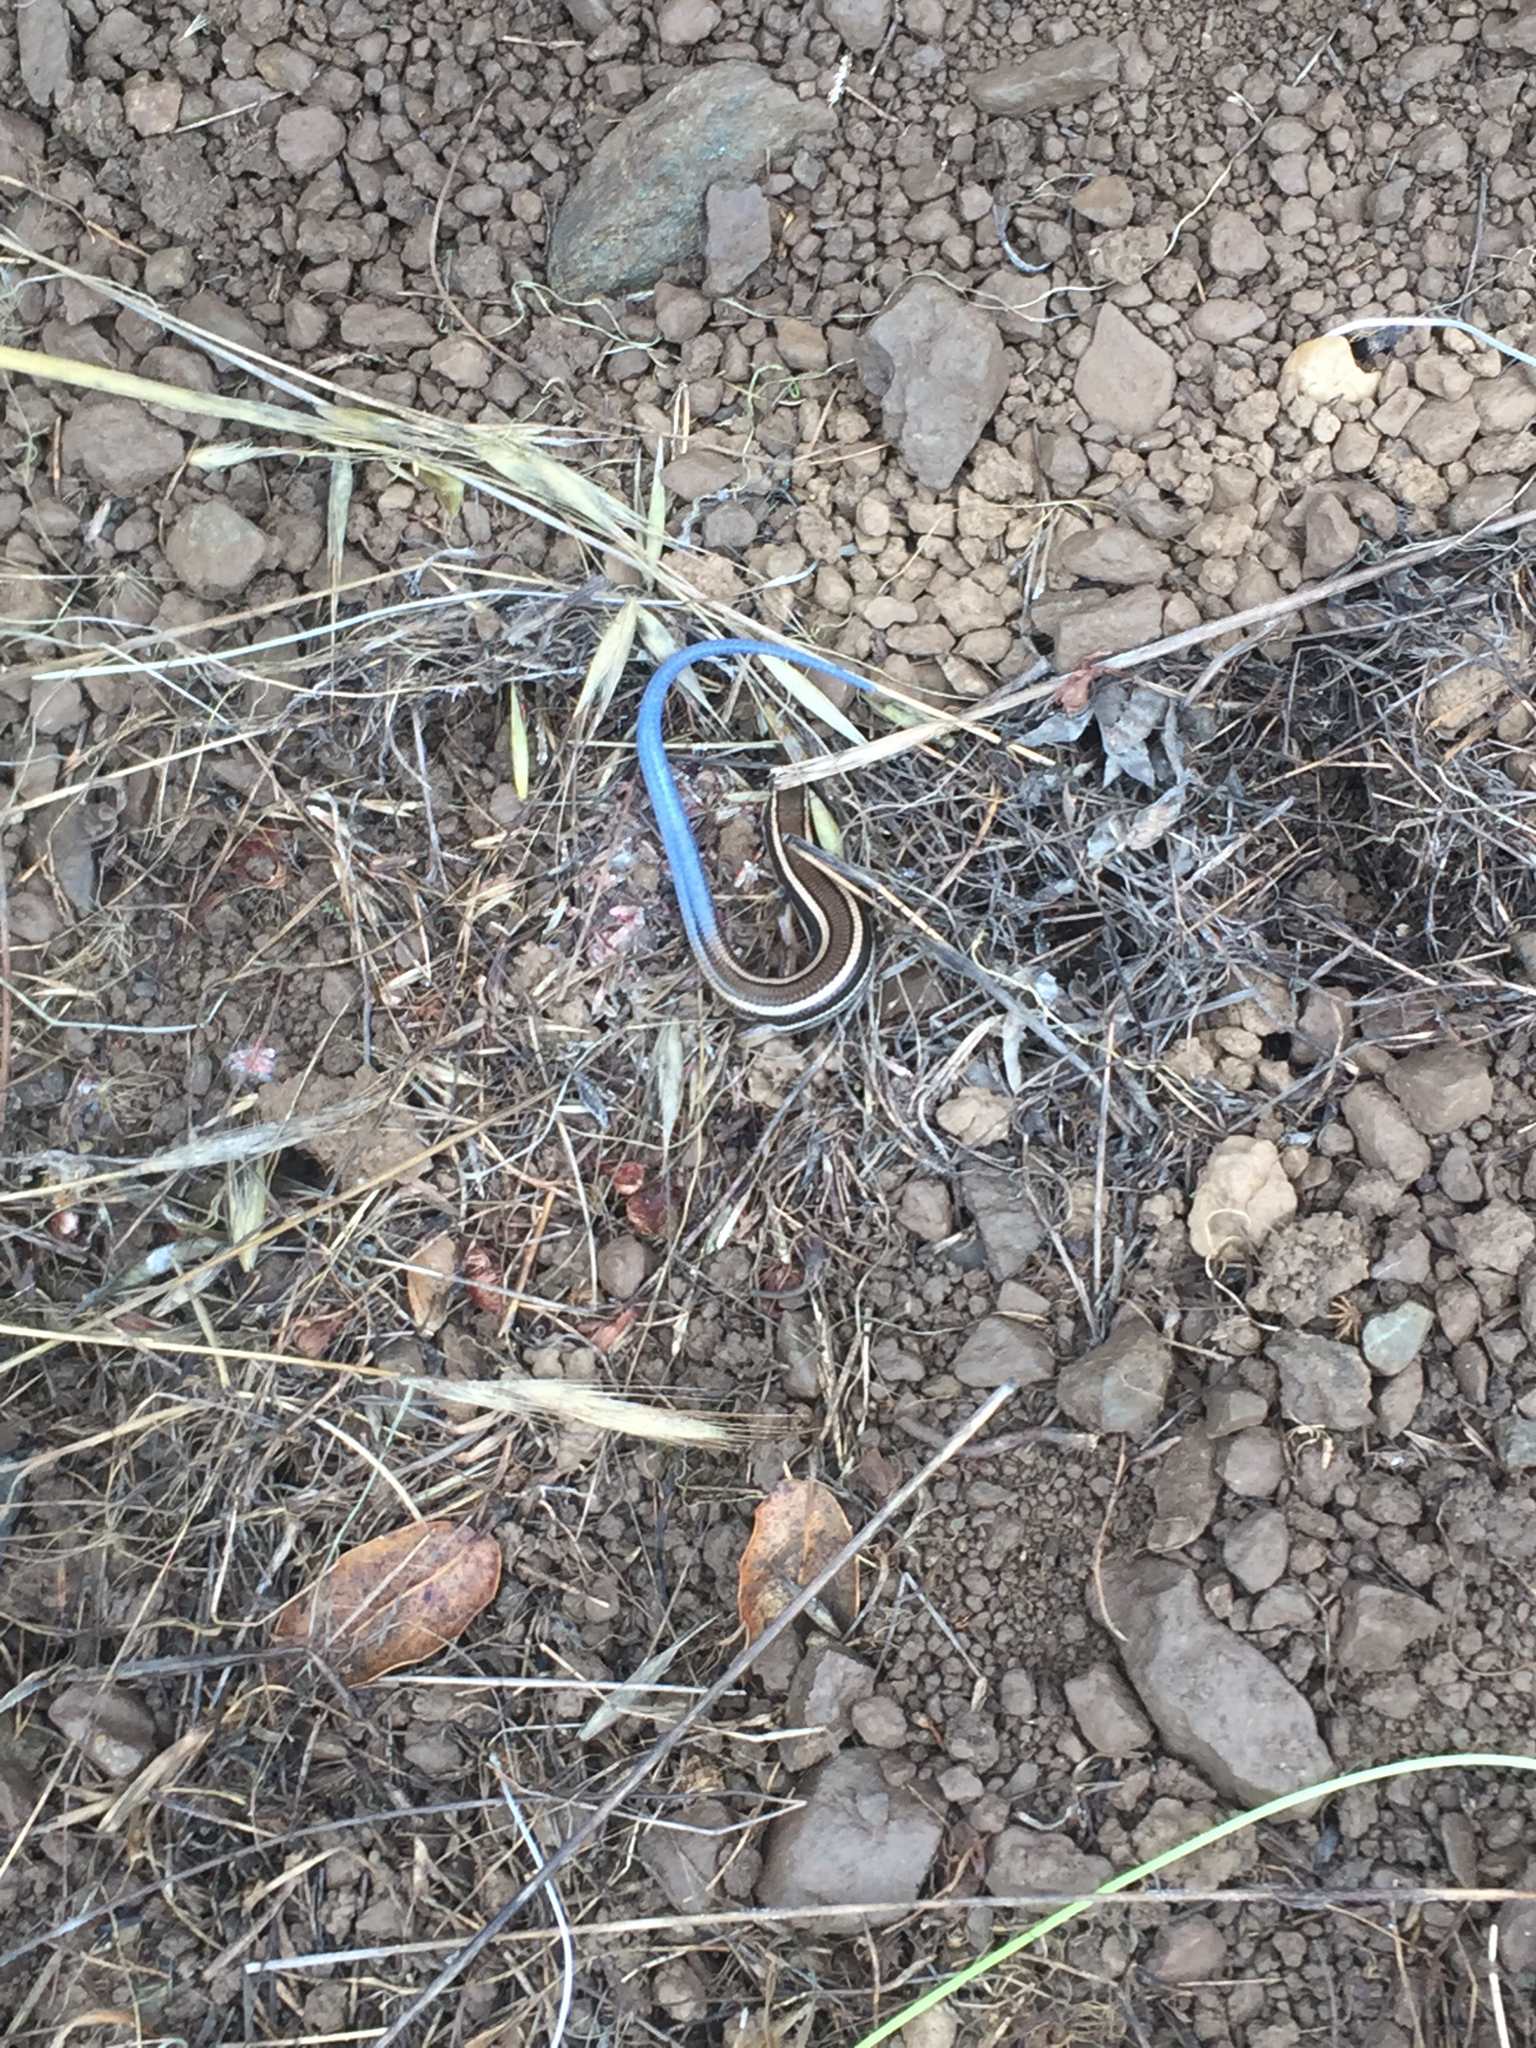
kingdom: Animalia
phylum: Chordata
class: Squamata
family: Scincidae
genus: Plestiodon
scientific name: Plestiodon skiltonianus
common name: Coronado island skink [interparietalis]
